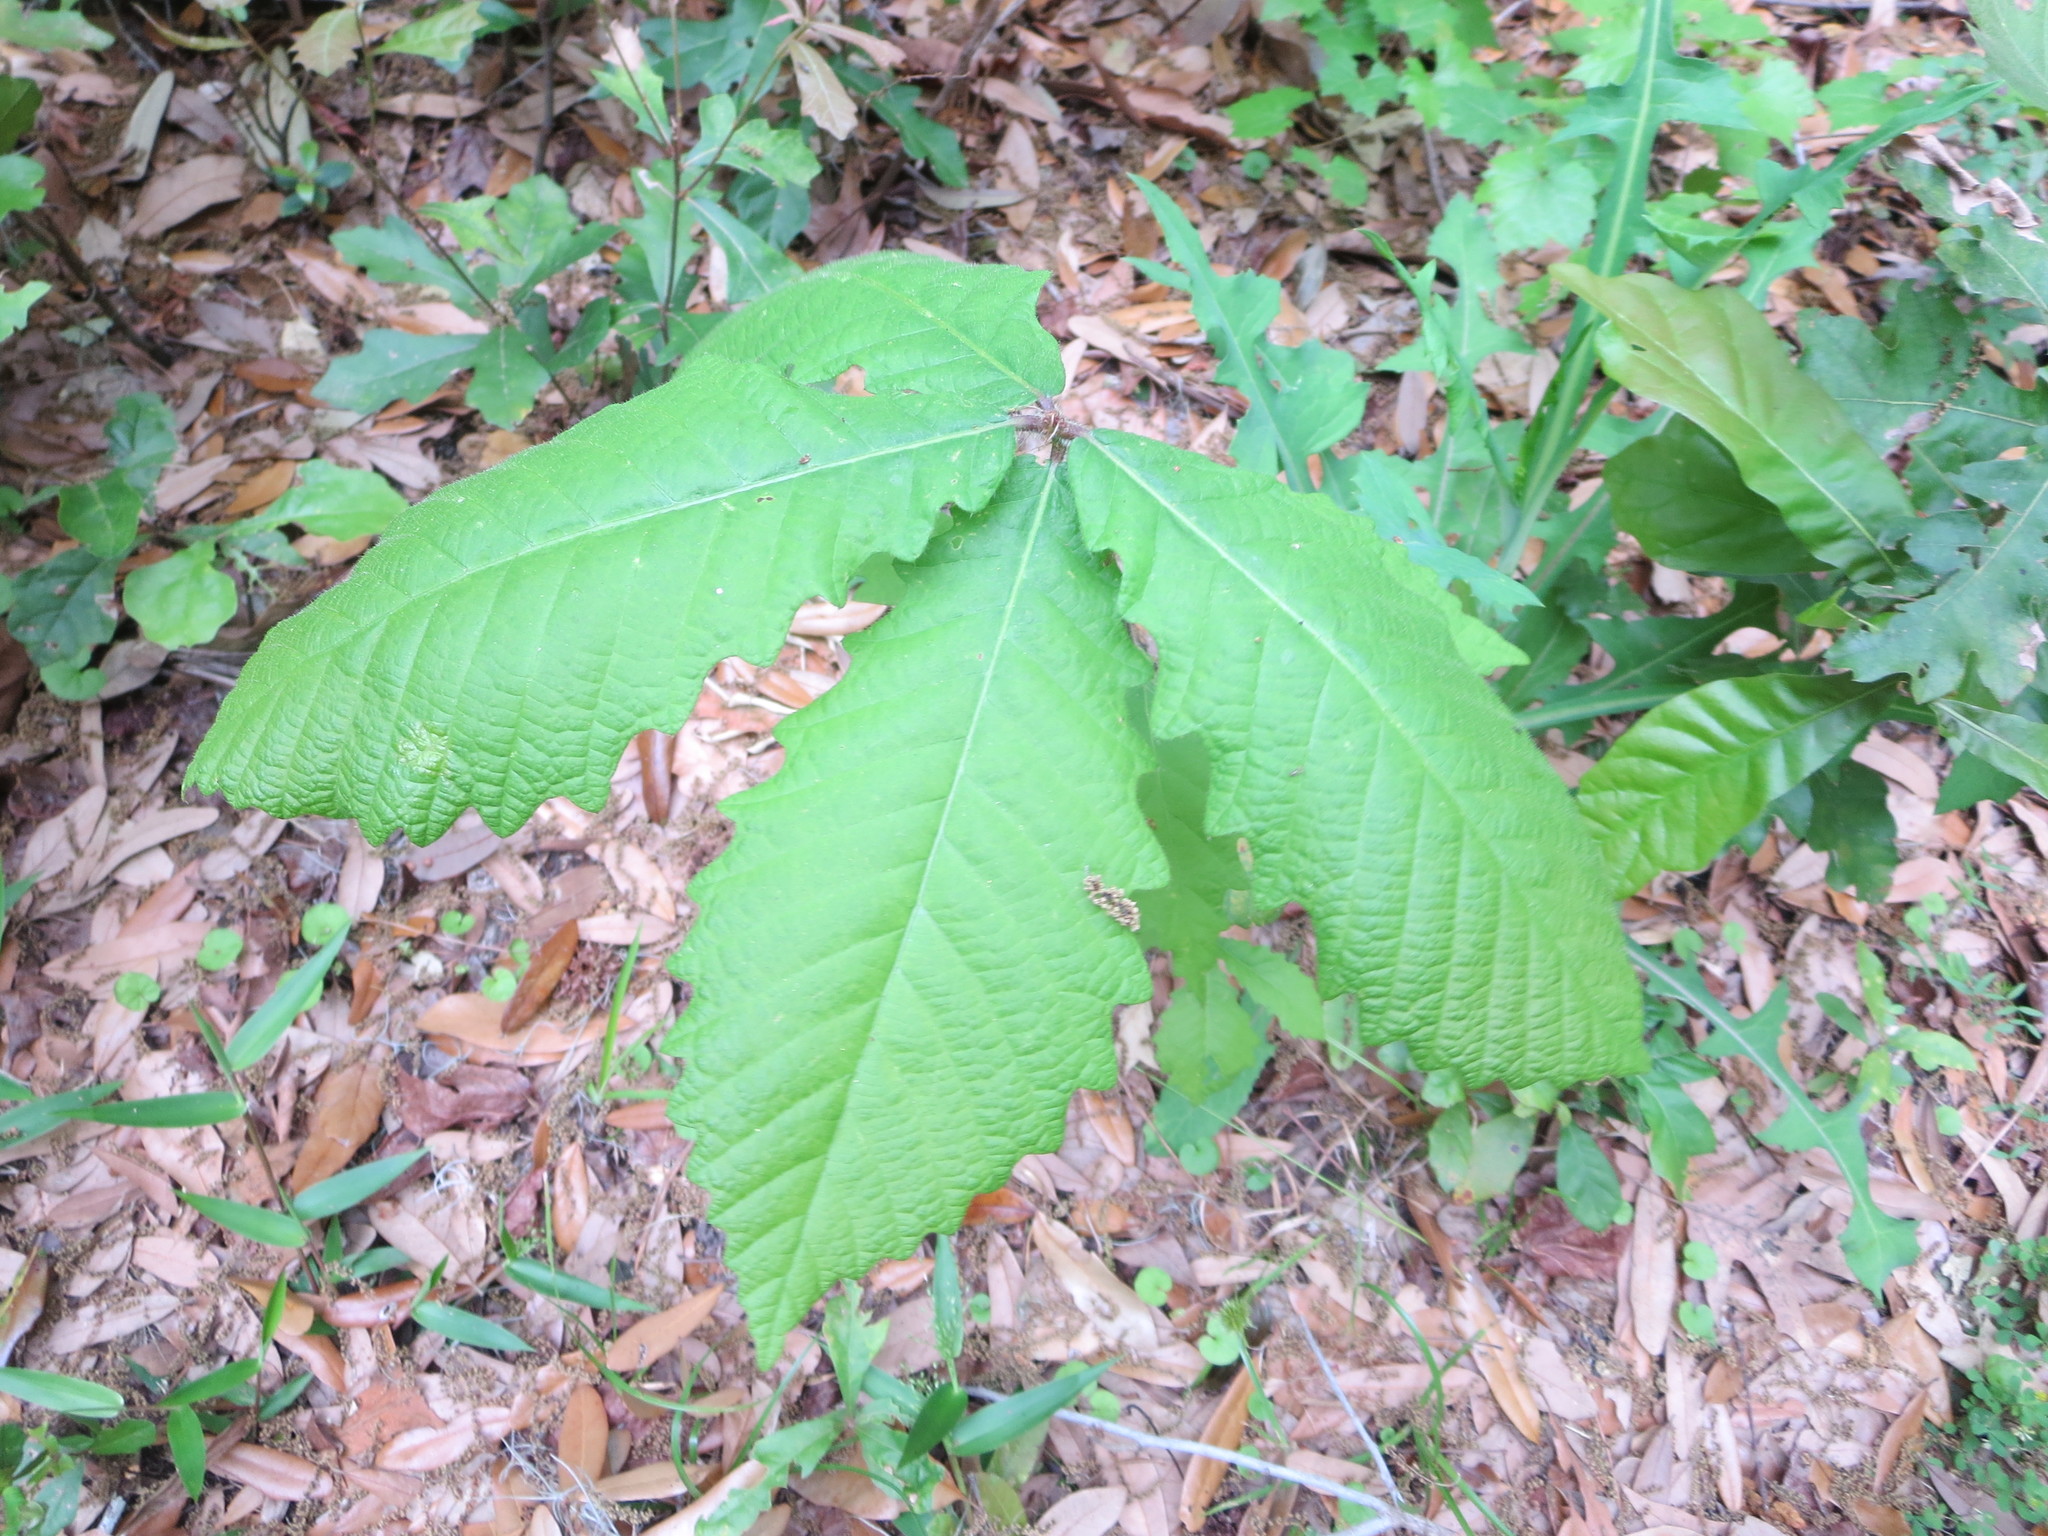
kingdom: Plantae
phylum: Tracheophyta
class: Magnoliopsida
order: Fagales
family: Fagaceae
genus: Quercus
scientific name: Quercus michauxii
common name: Swamp chestnut oak
